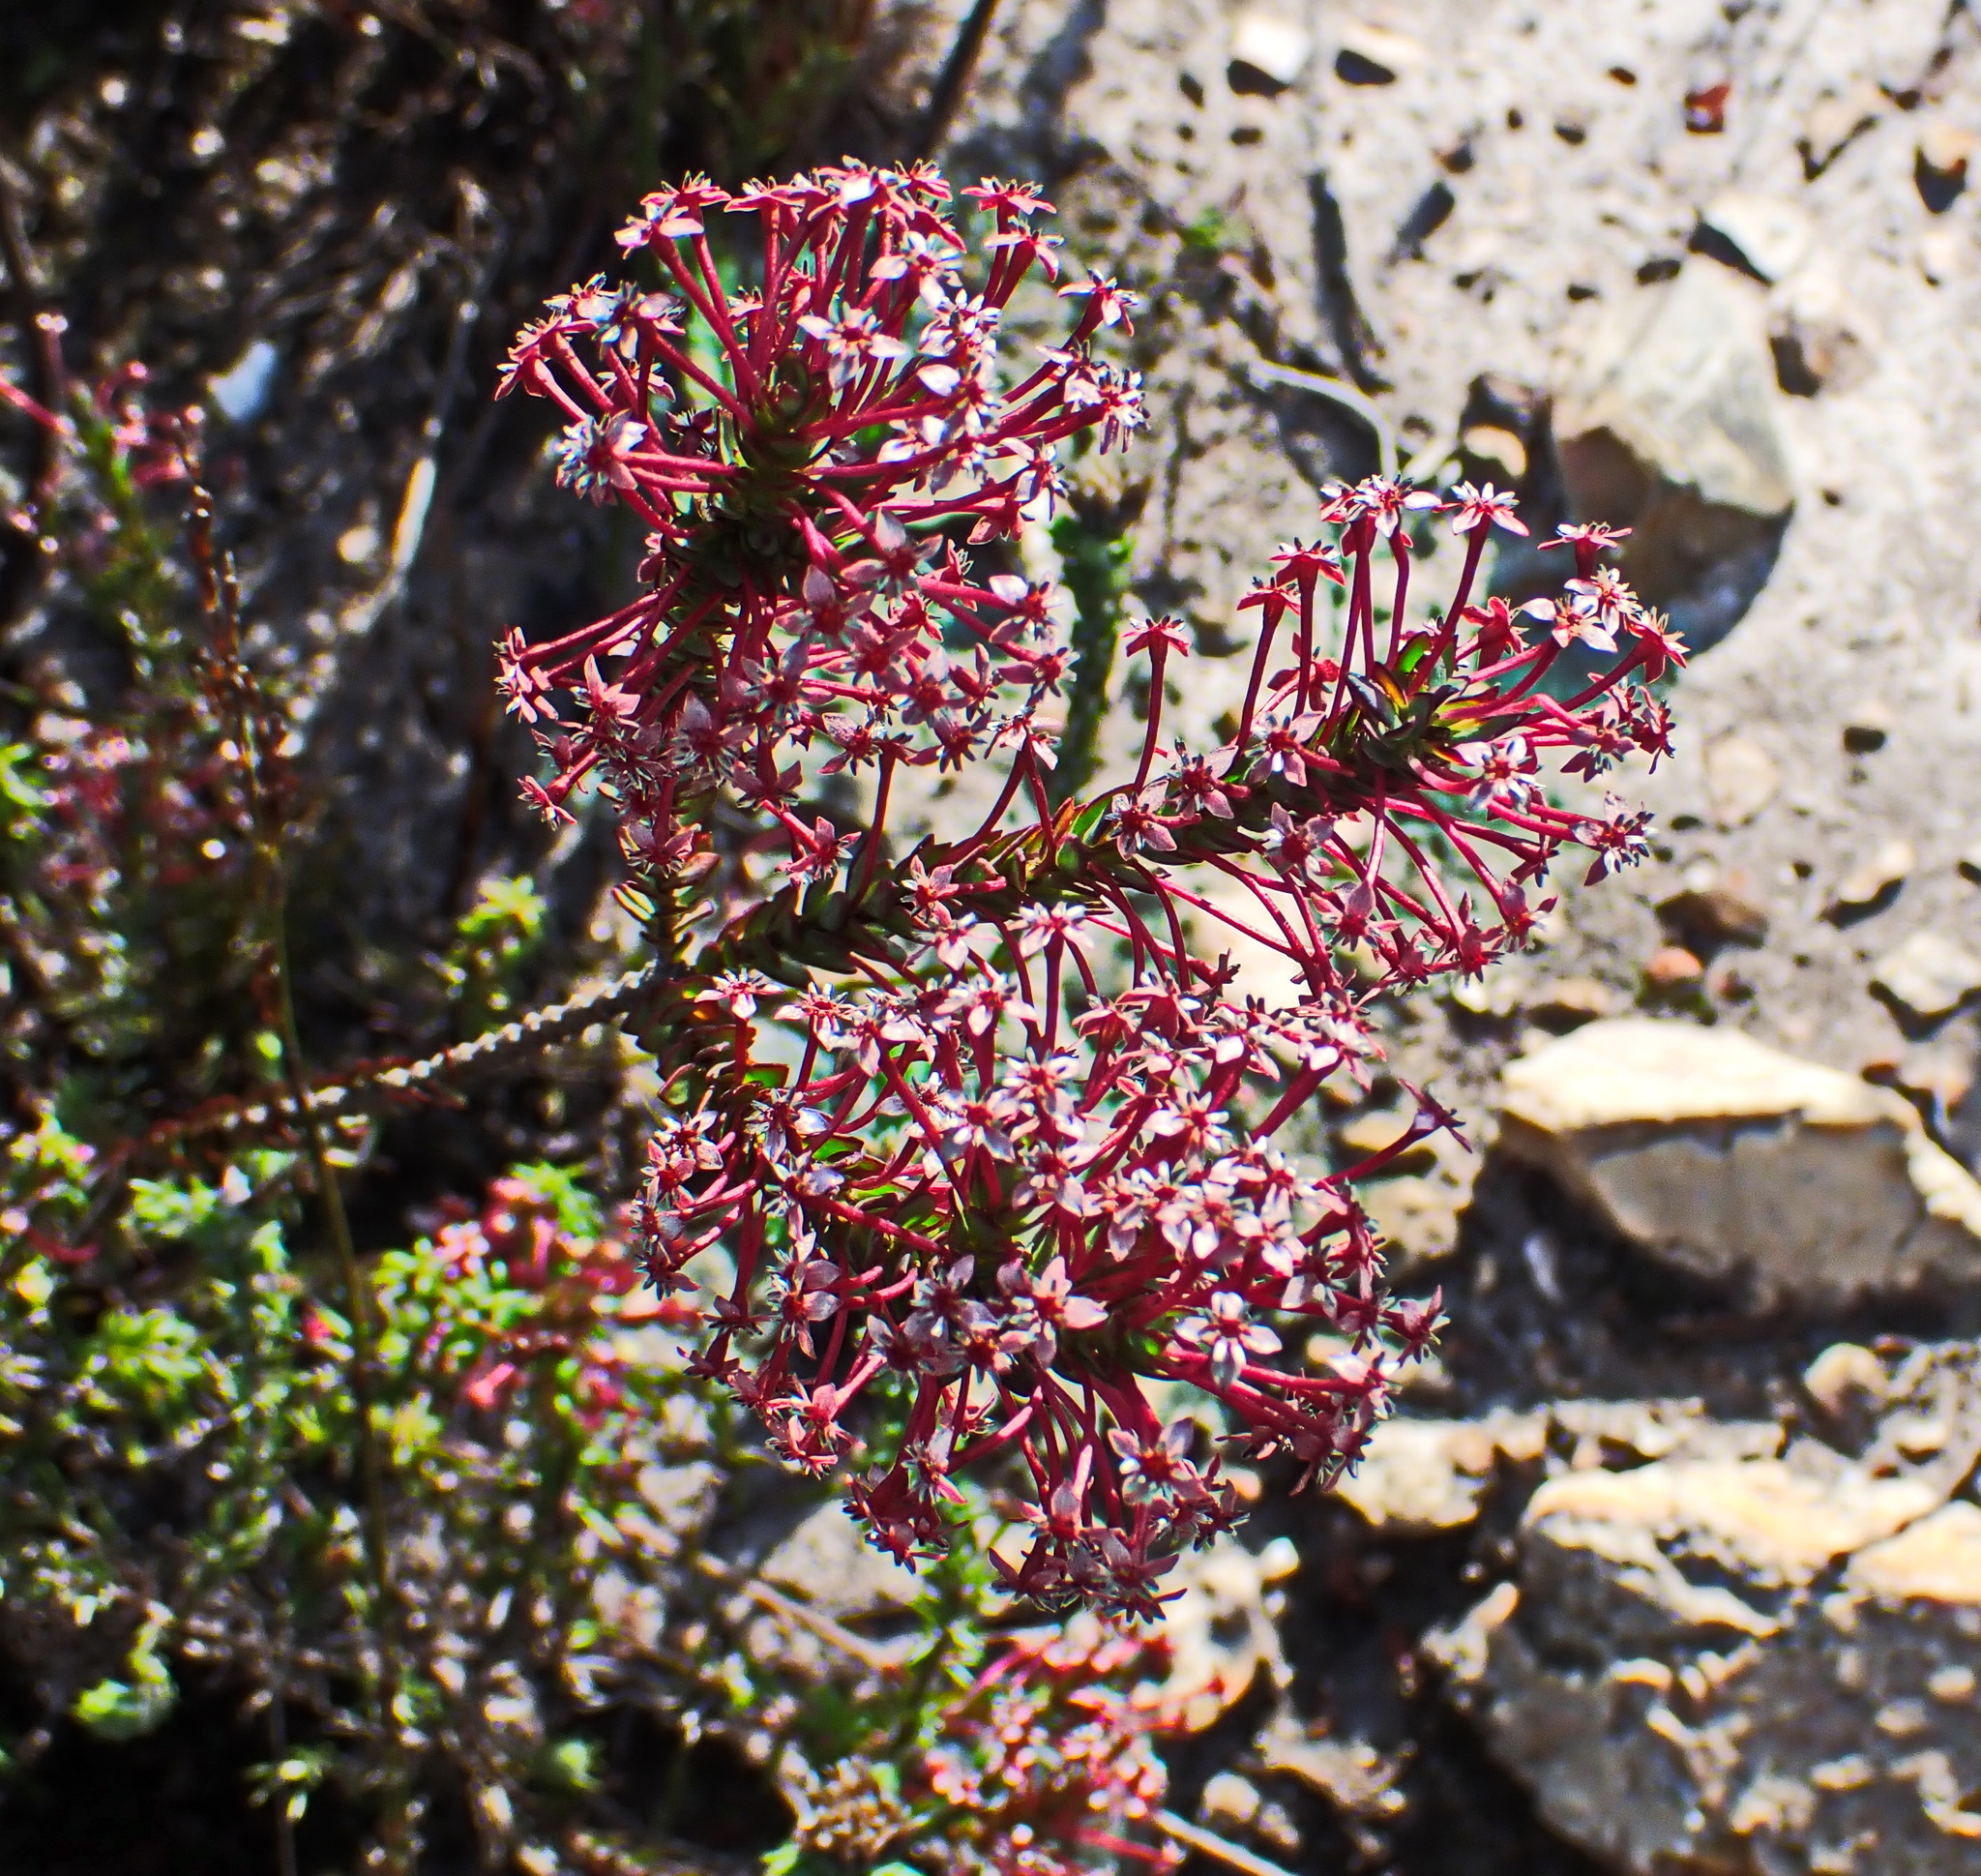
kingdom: Plantae
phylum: Tracheophyta
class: Magnoliopsida
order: Malvales
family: Thymelaeaceae
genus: Struthiola
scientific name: Struthiola macowanii
